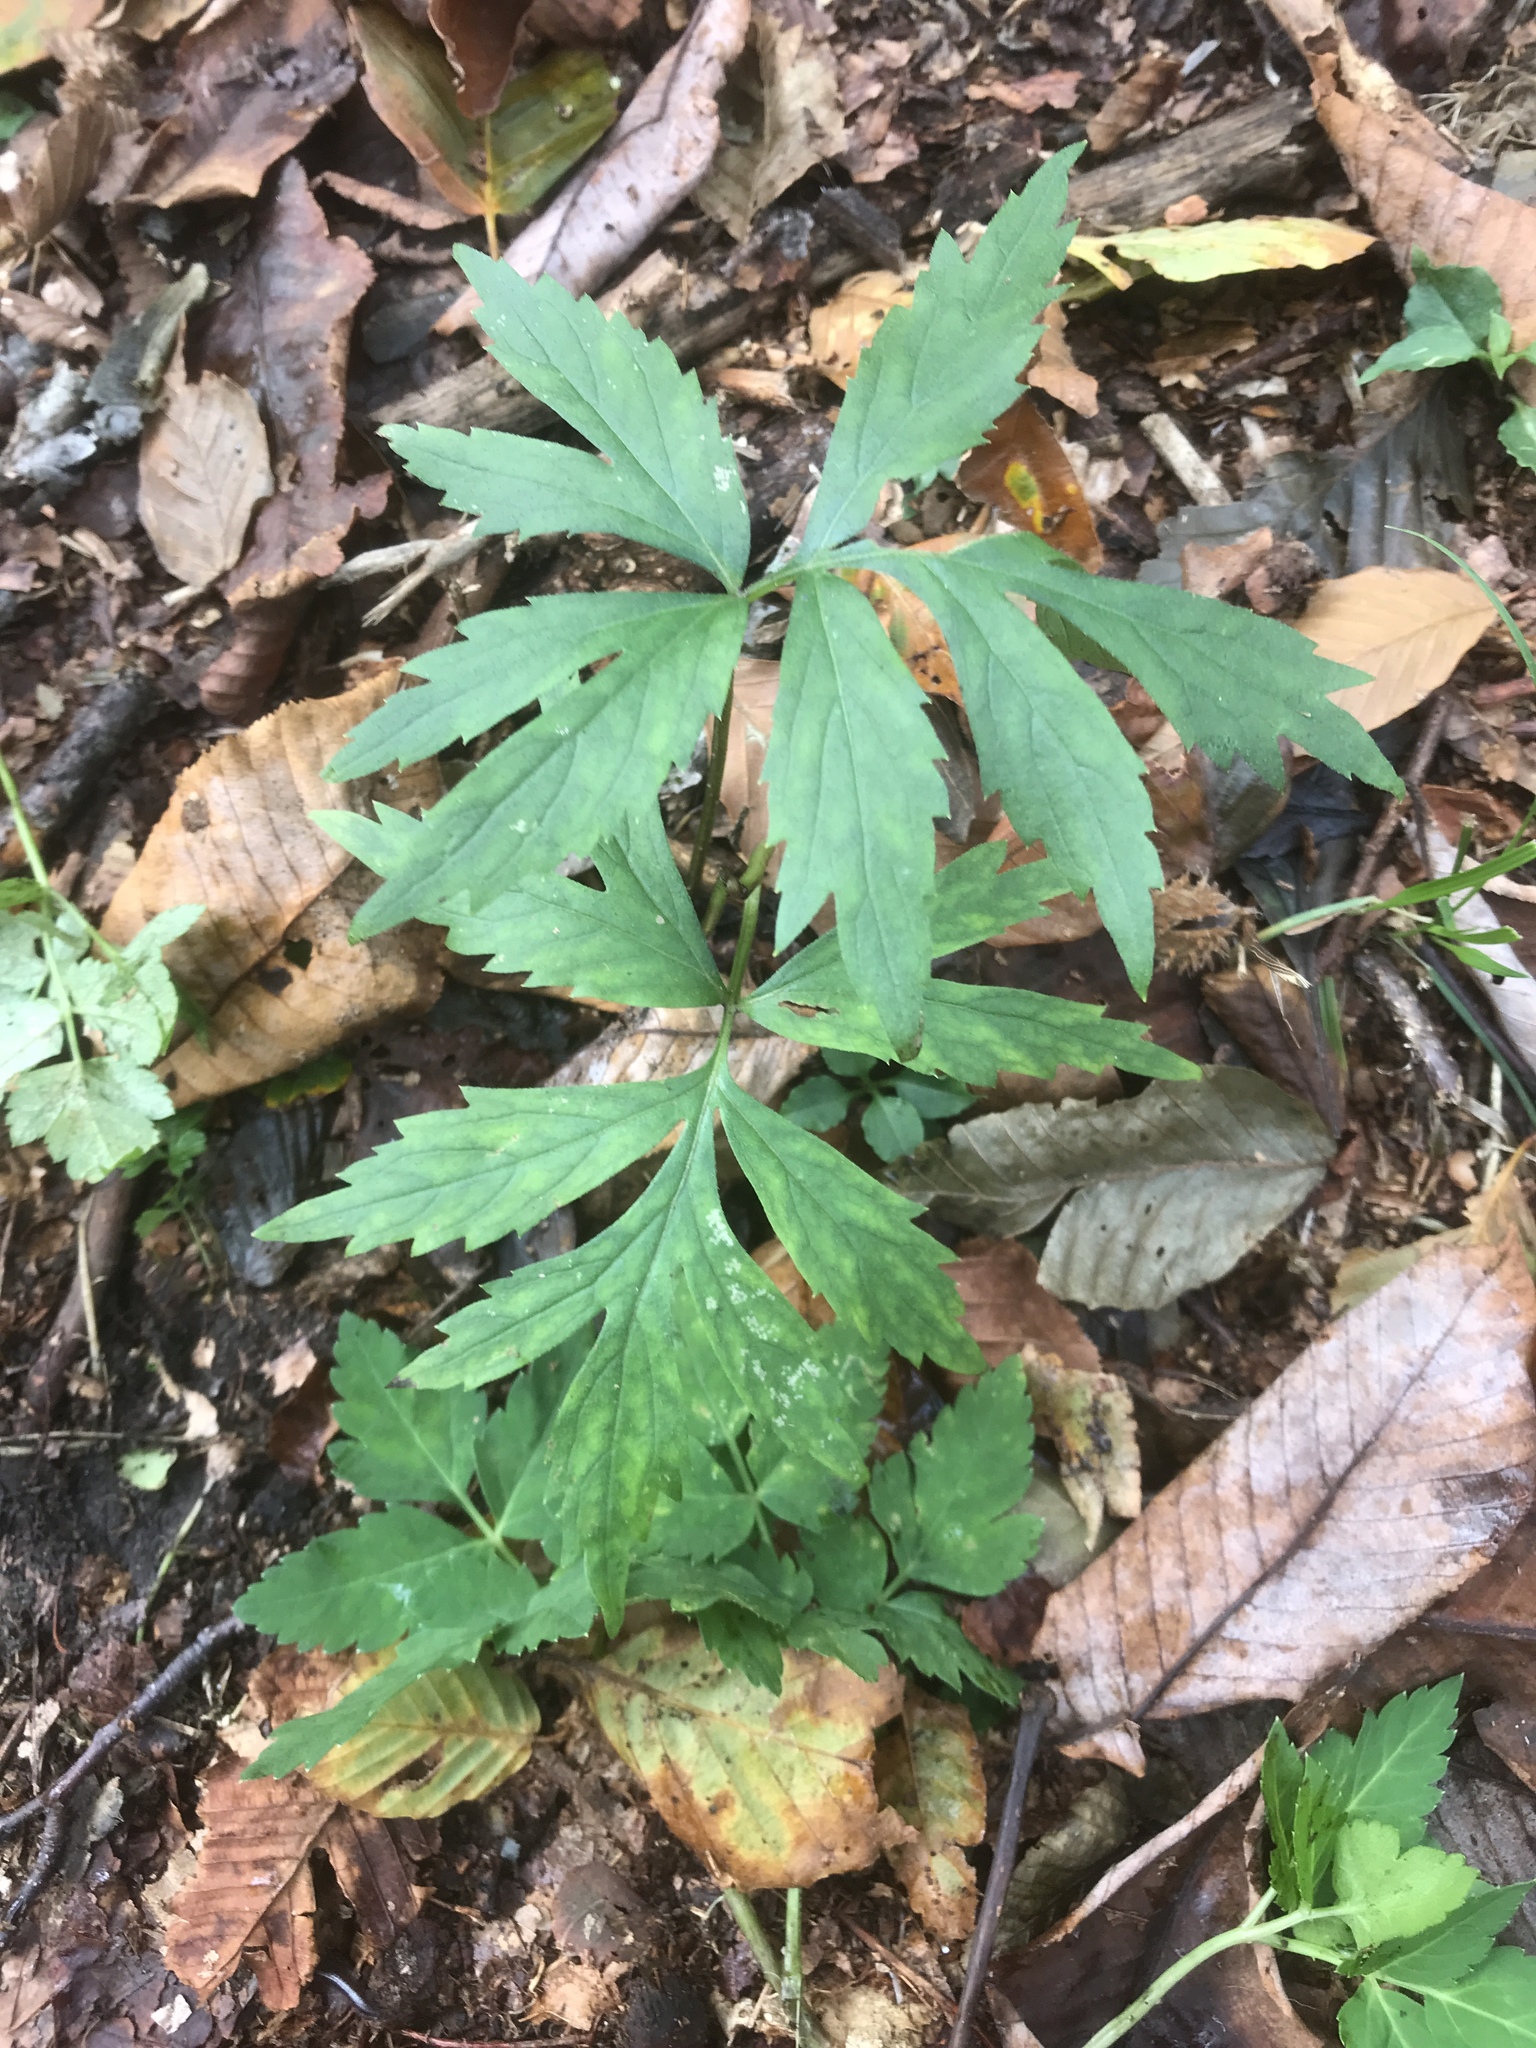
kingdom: Plantae
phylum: Tracheophyta
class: Magnoliopsida
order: Boraginales
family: Hydrophyllaceae
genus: Hydrophyllum
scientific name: Hydrophyllum virginianum
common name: Virginia waterleaf
